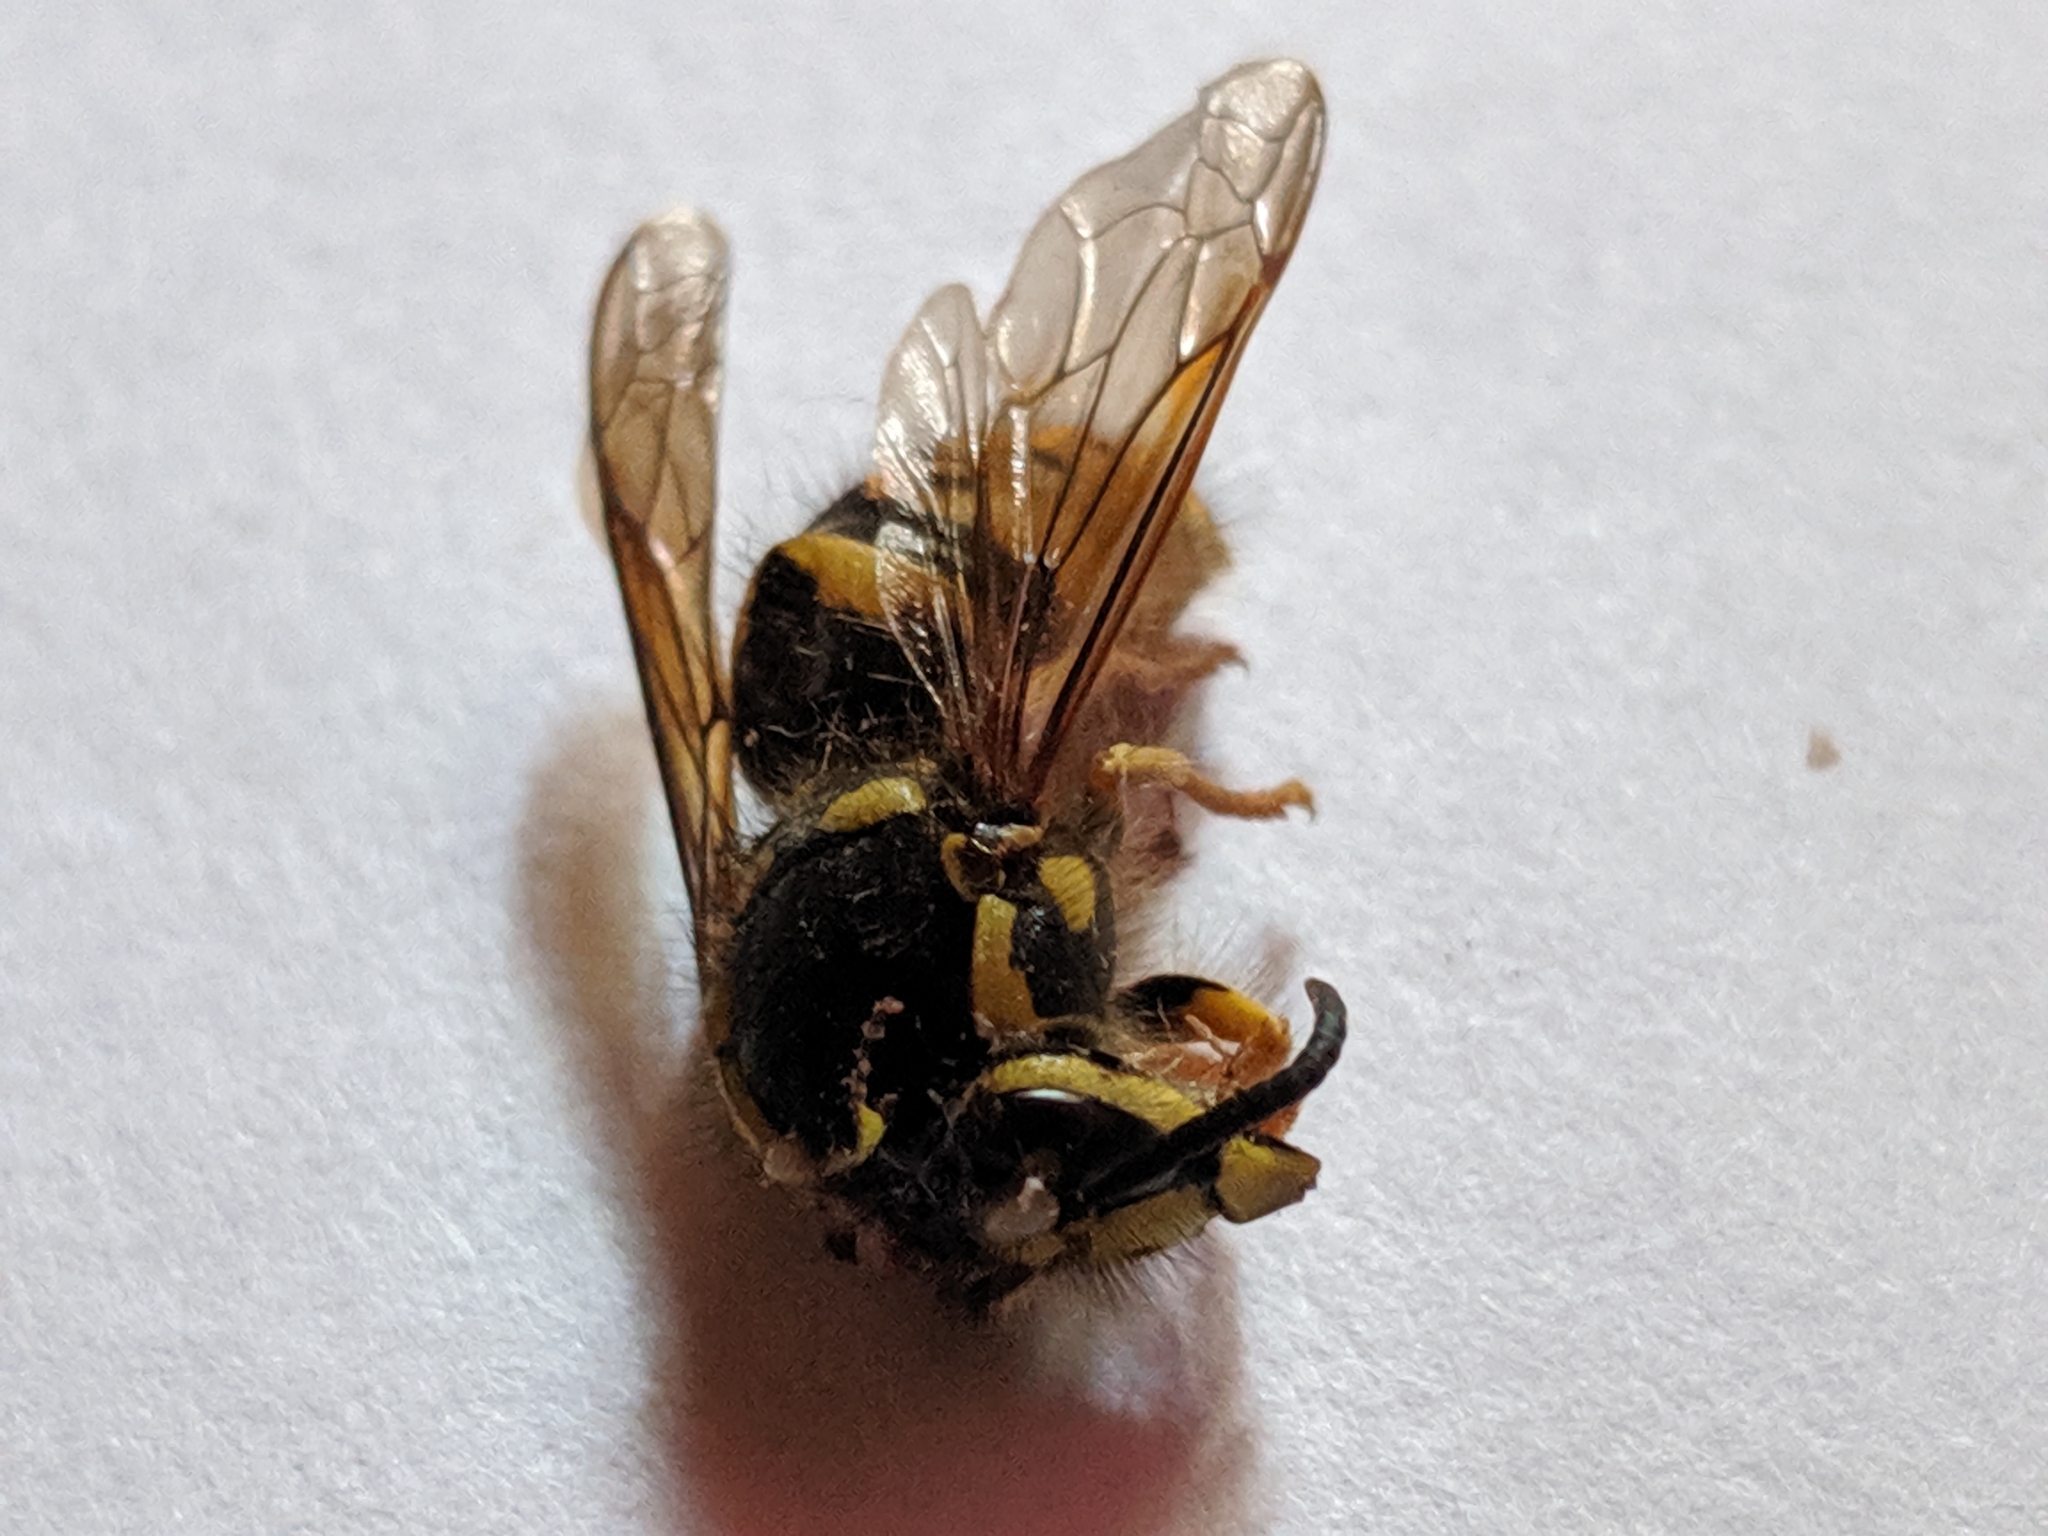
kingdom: Animalia
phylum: Arthropoda
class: Insecta
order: Hymenoptera
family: Vespidae
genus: Dolichovespula
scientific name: Dolichovespula arenaria
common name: Aerial yellowjacket
